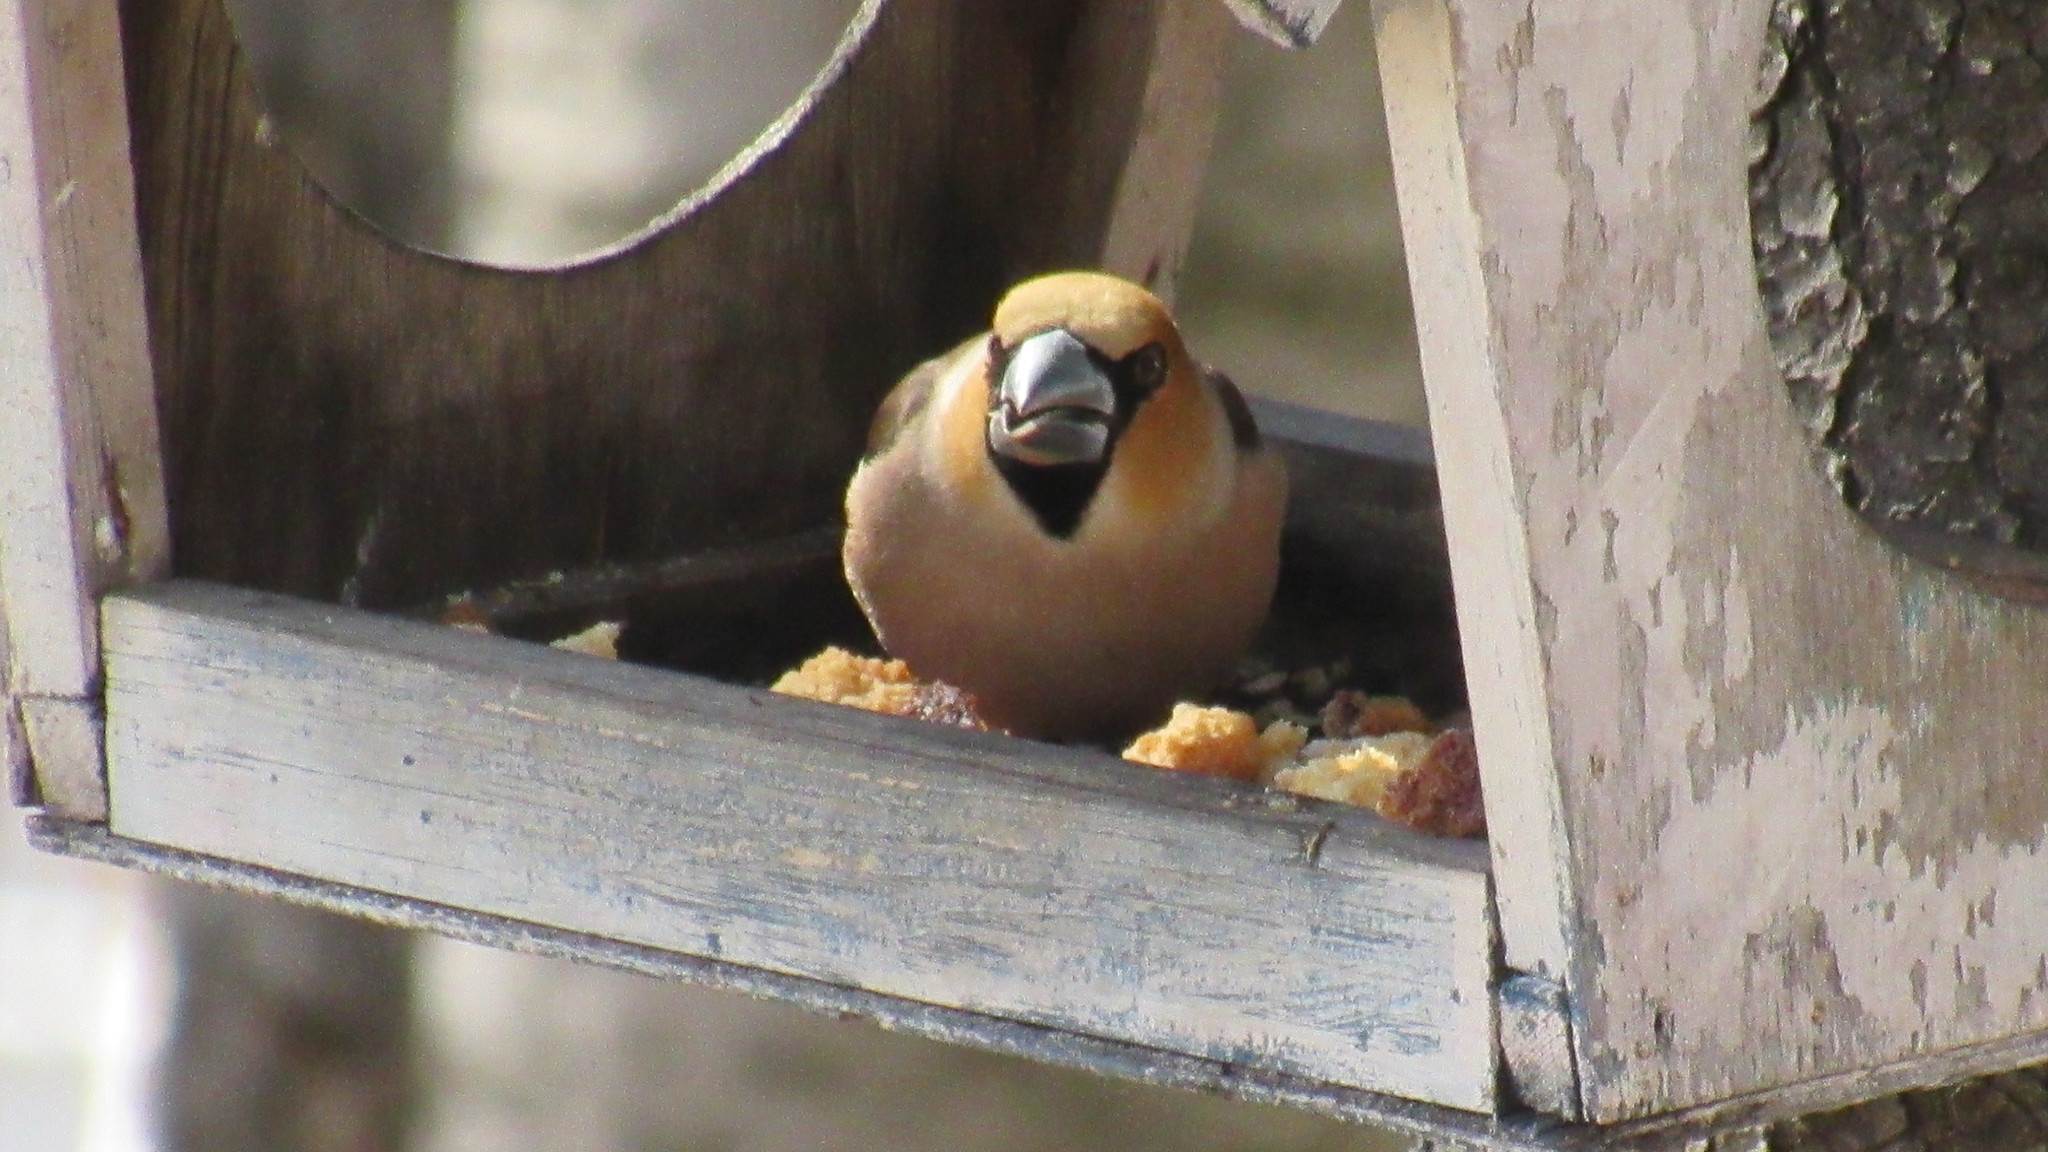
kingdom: Animalia
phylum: Chordata
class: Aves
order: Passeriformes
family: Fringillidae
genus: Coccothraustes
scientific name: Coccothraustes coccothraustes
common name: Hawfinch
